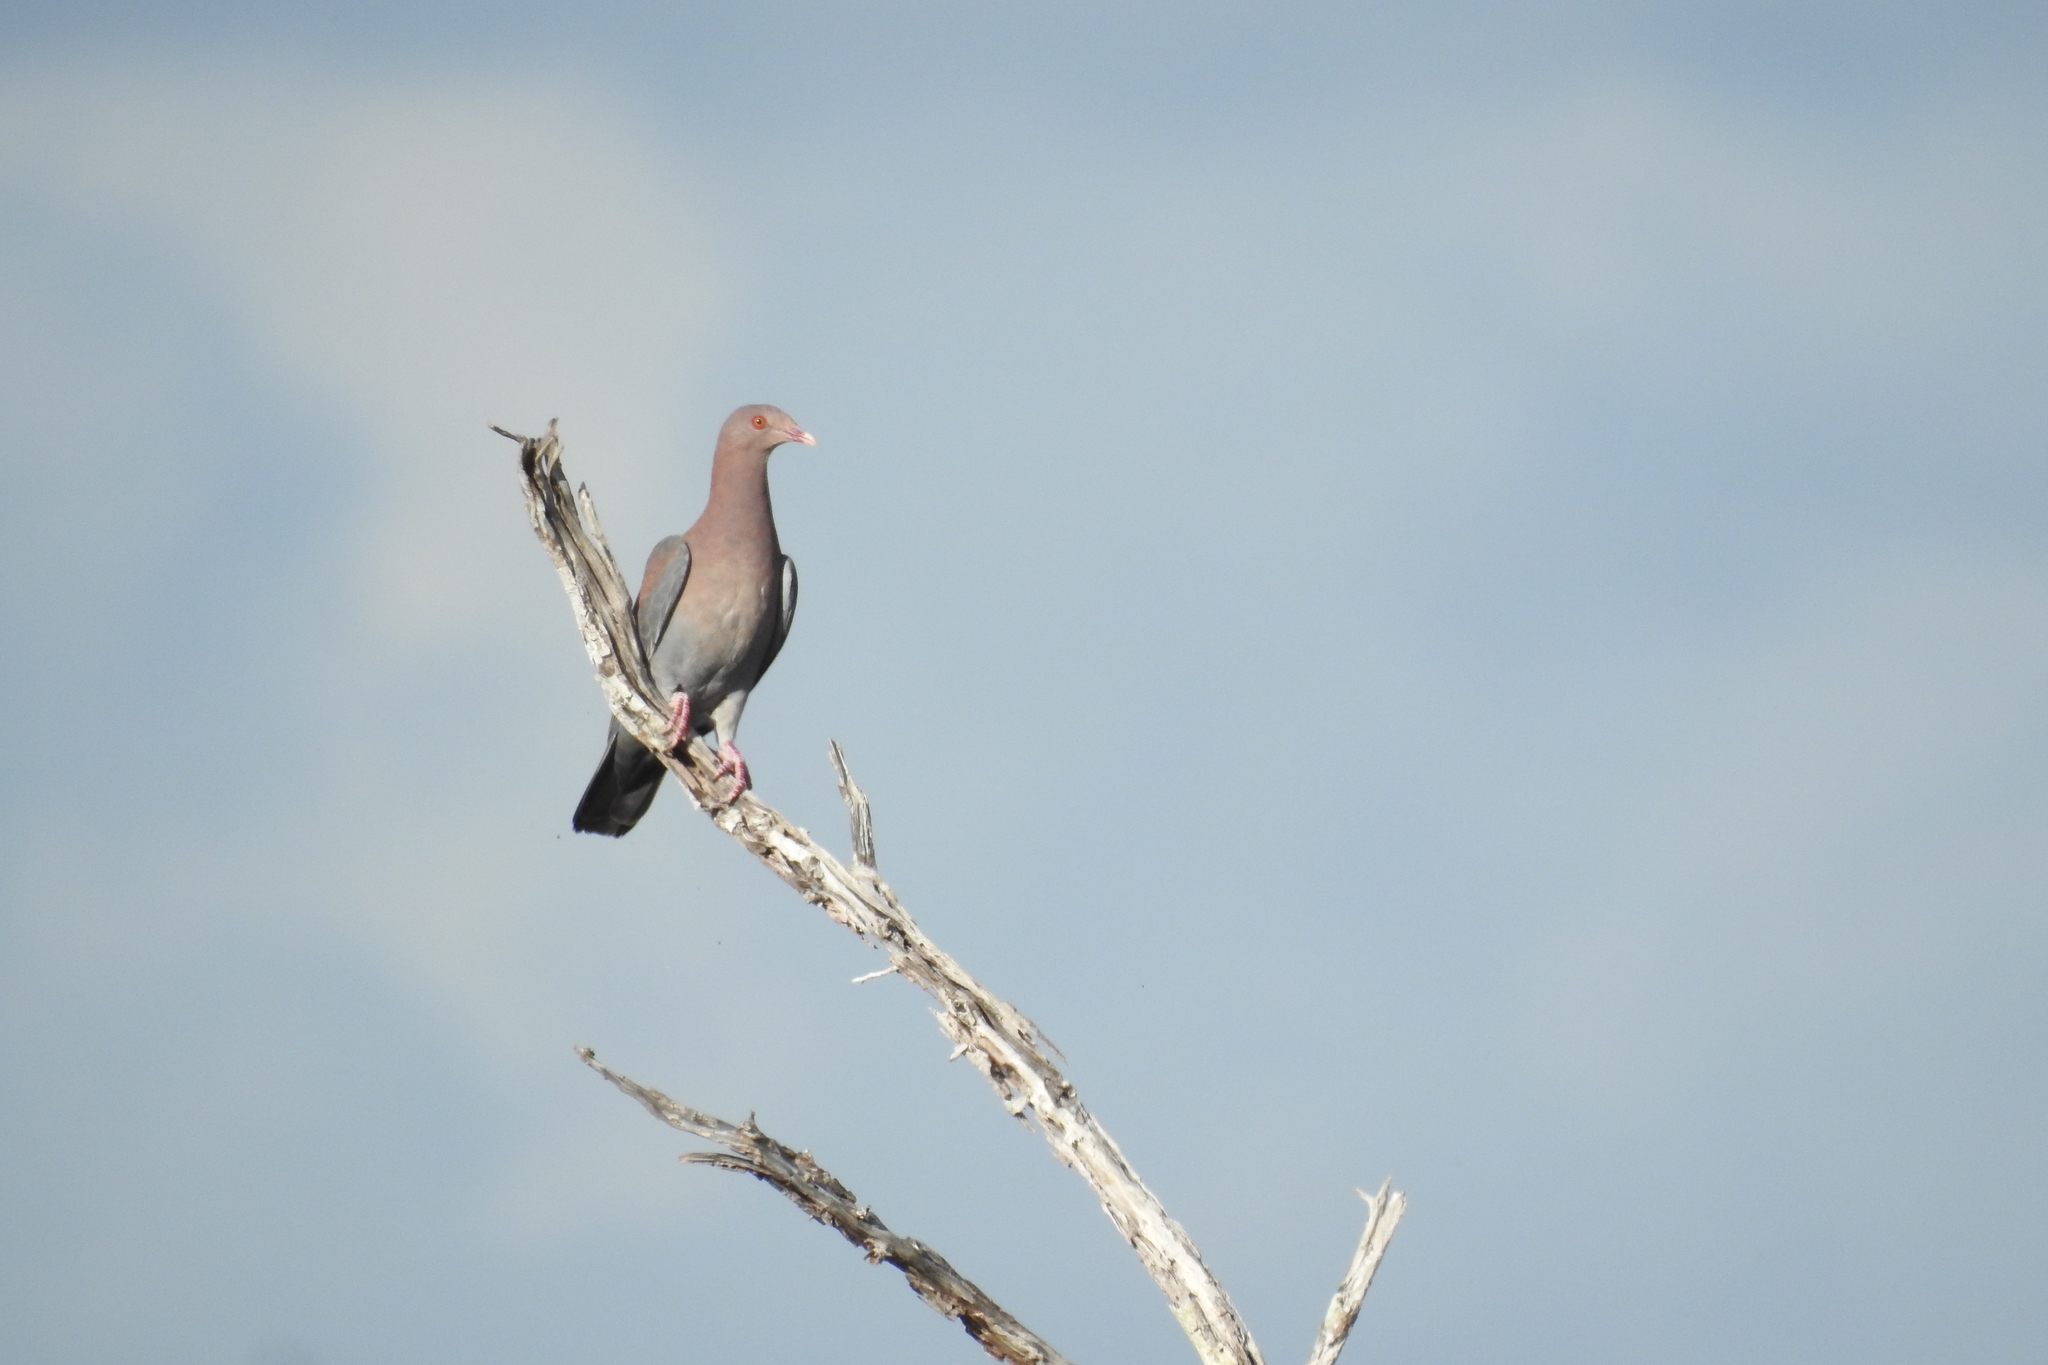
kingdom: Animalia
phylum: Chordata
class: Aves
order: Columbiformes
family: Columbidae
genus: Patagioenas
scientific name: Patagioenas flavirostris
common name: Red-billed pigeon
